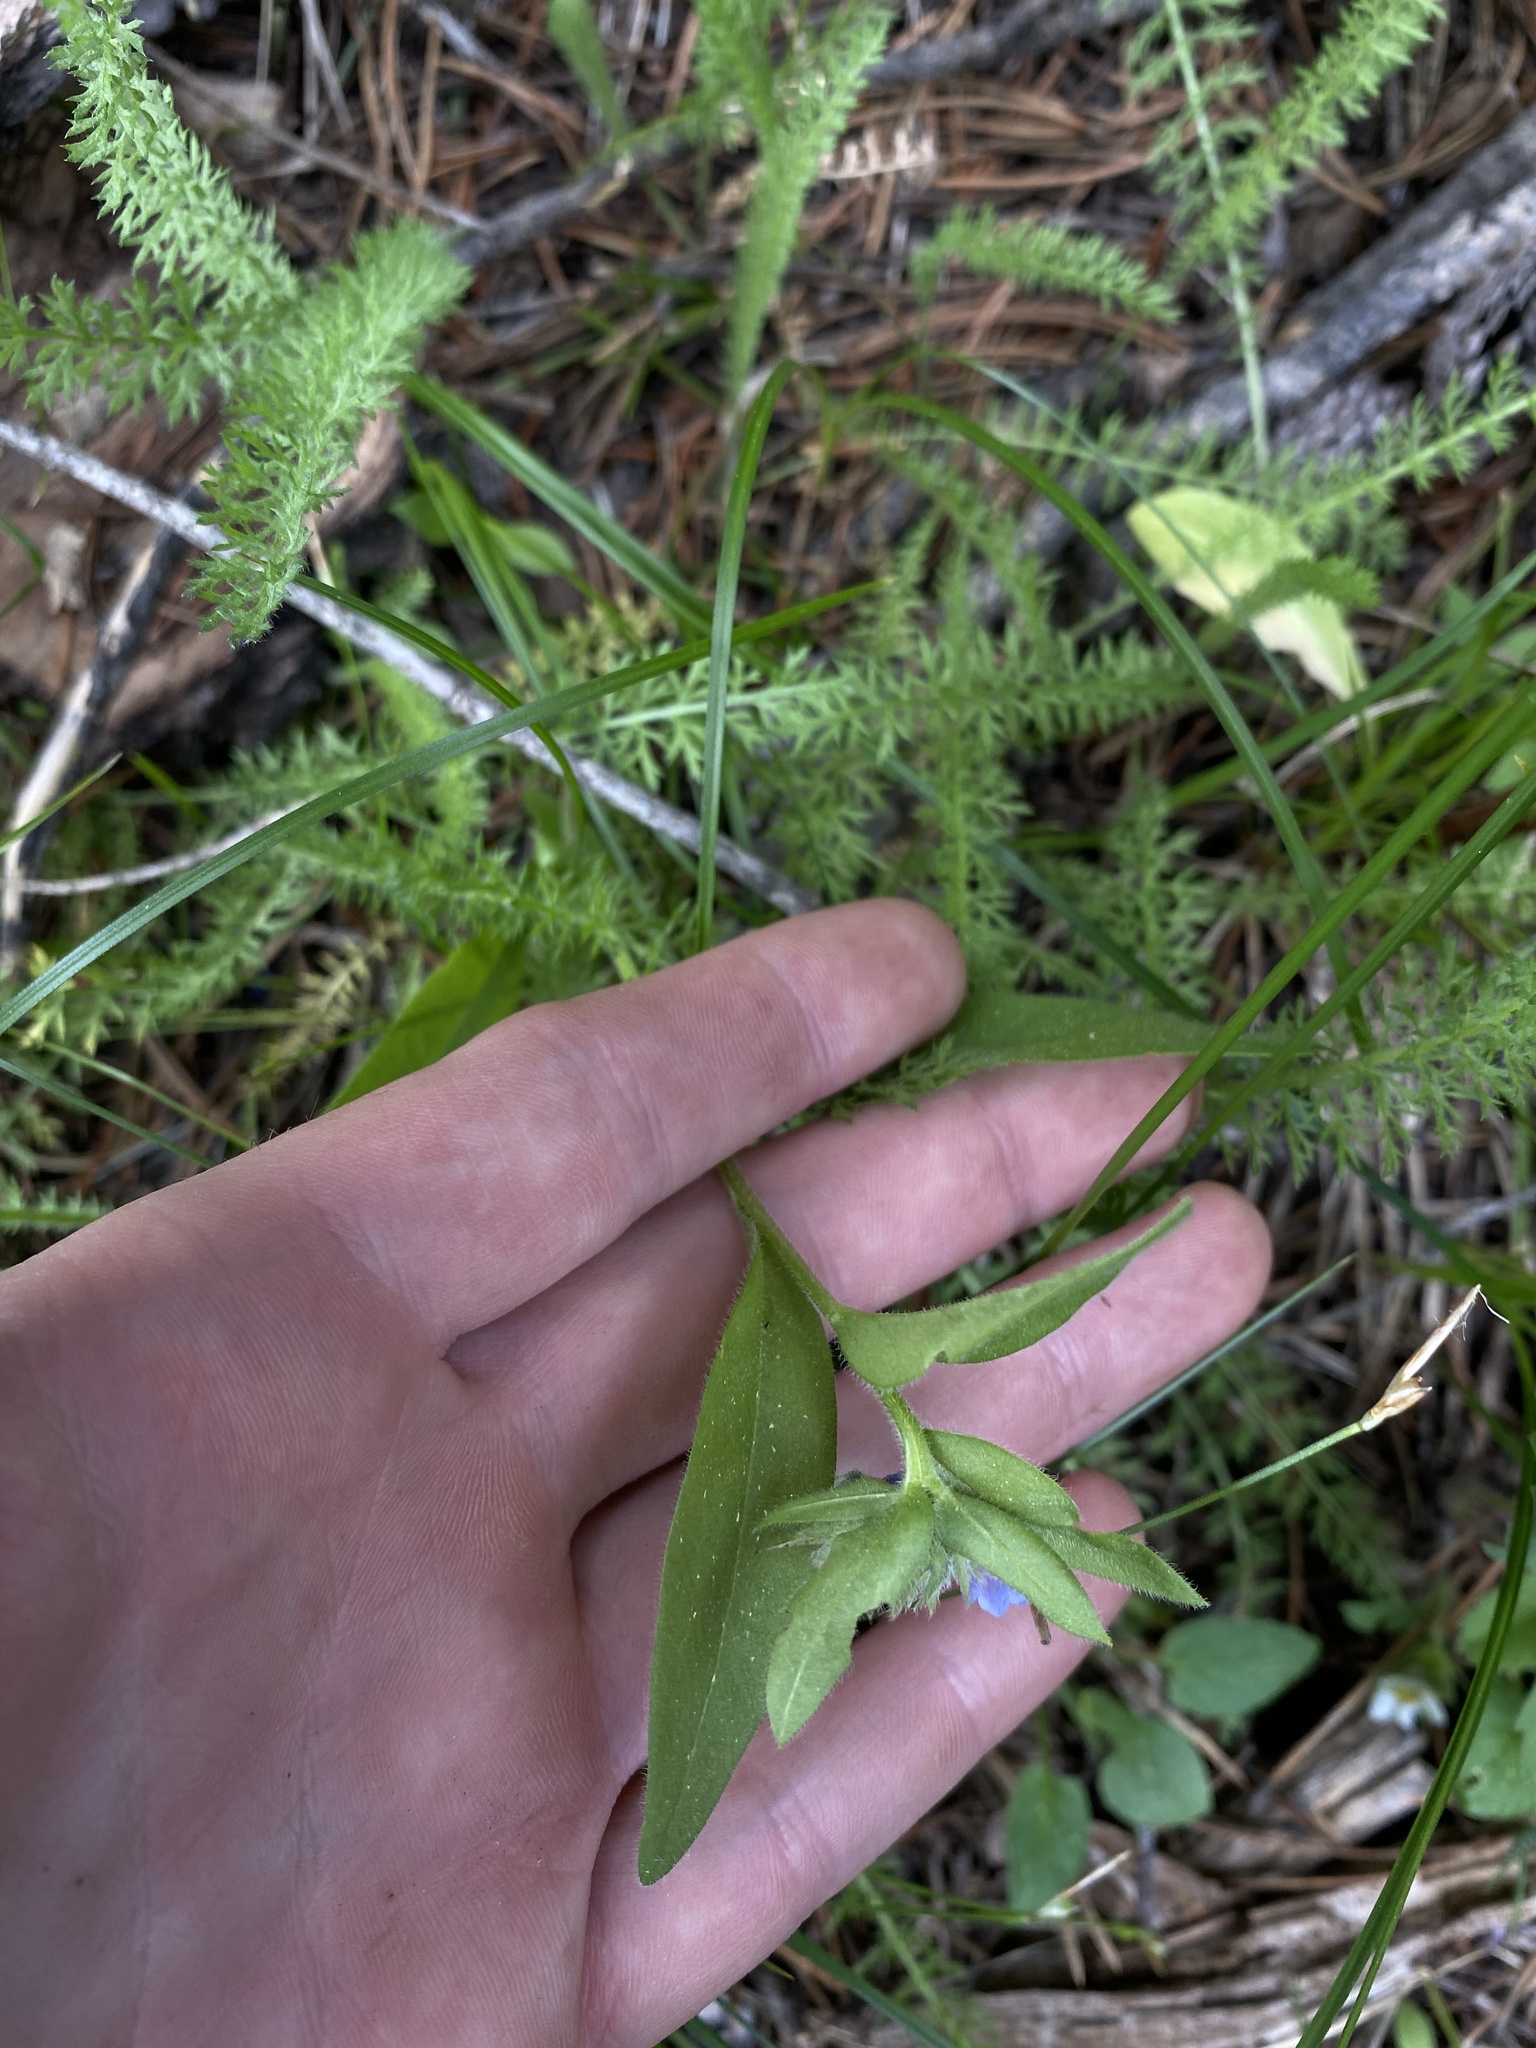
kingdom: Plantae
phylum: Tracheophyta
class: Magnoliopsida
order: Boraginales
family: Boraginaceae
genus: Mertensia
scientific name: Mertensia cusickii
